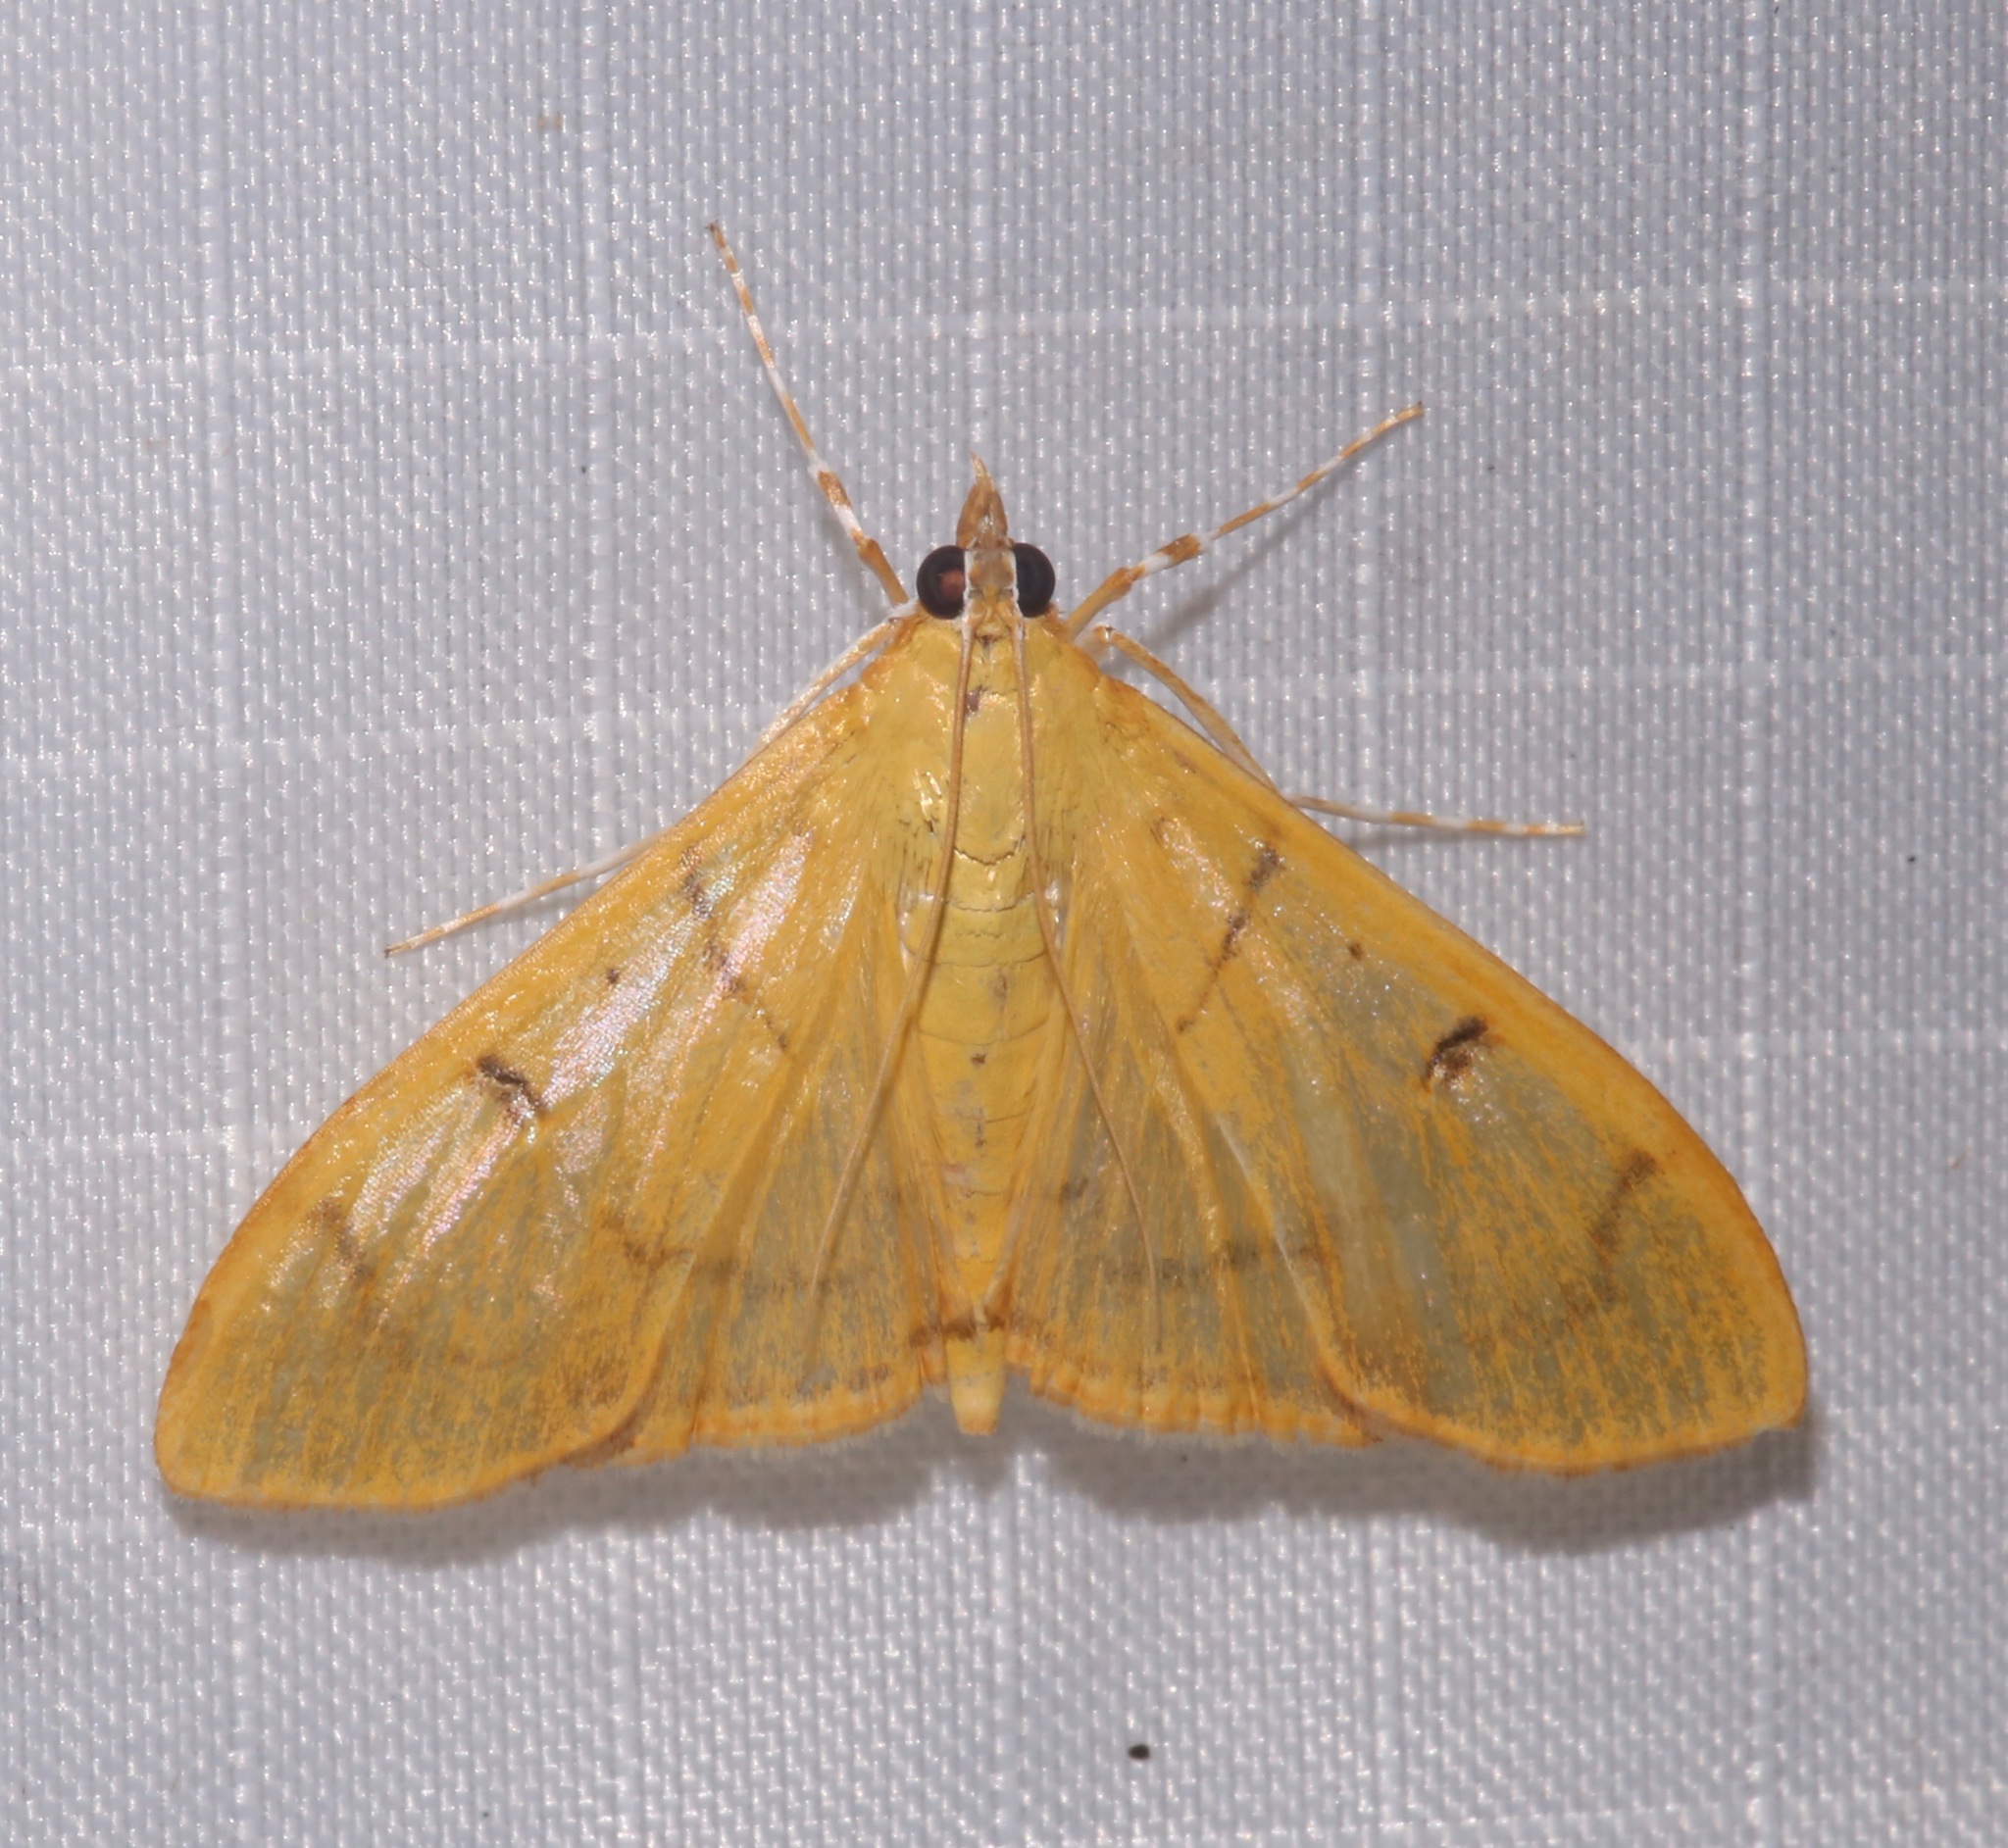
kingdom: Animalia
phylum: Arthropoda
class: Insecta
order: Lepidoptera
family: Crambidae
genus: Condylorrhiza
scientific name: Condylorrhiza vestigialis
